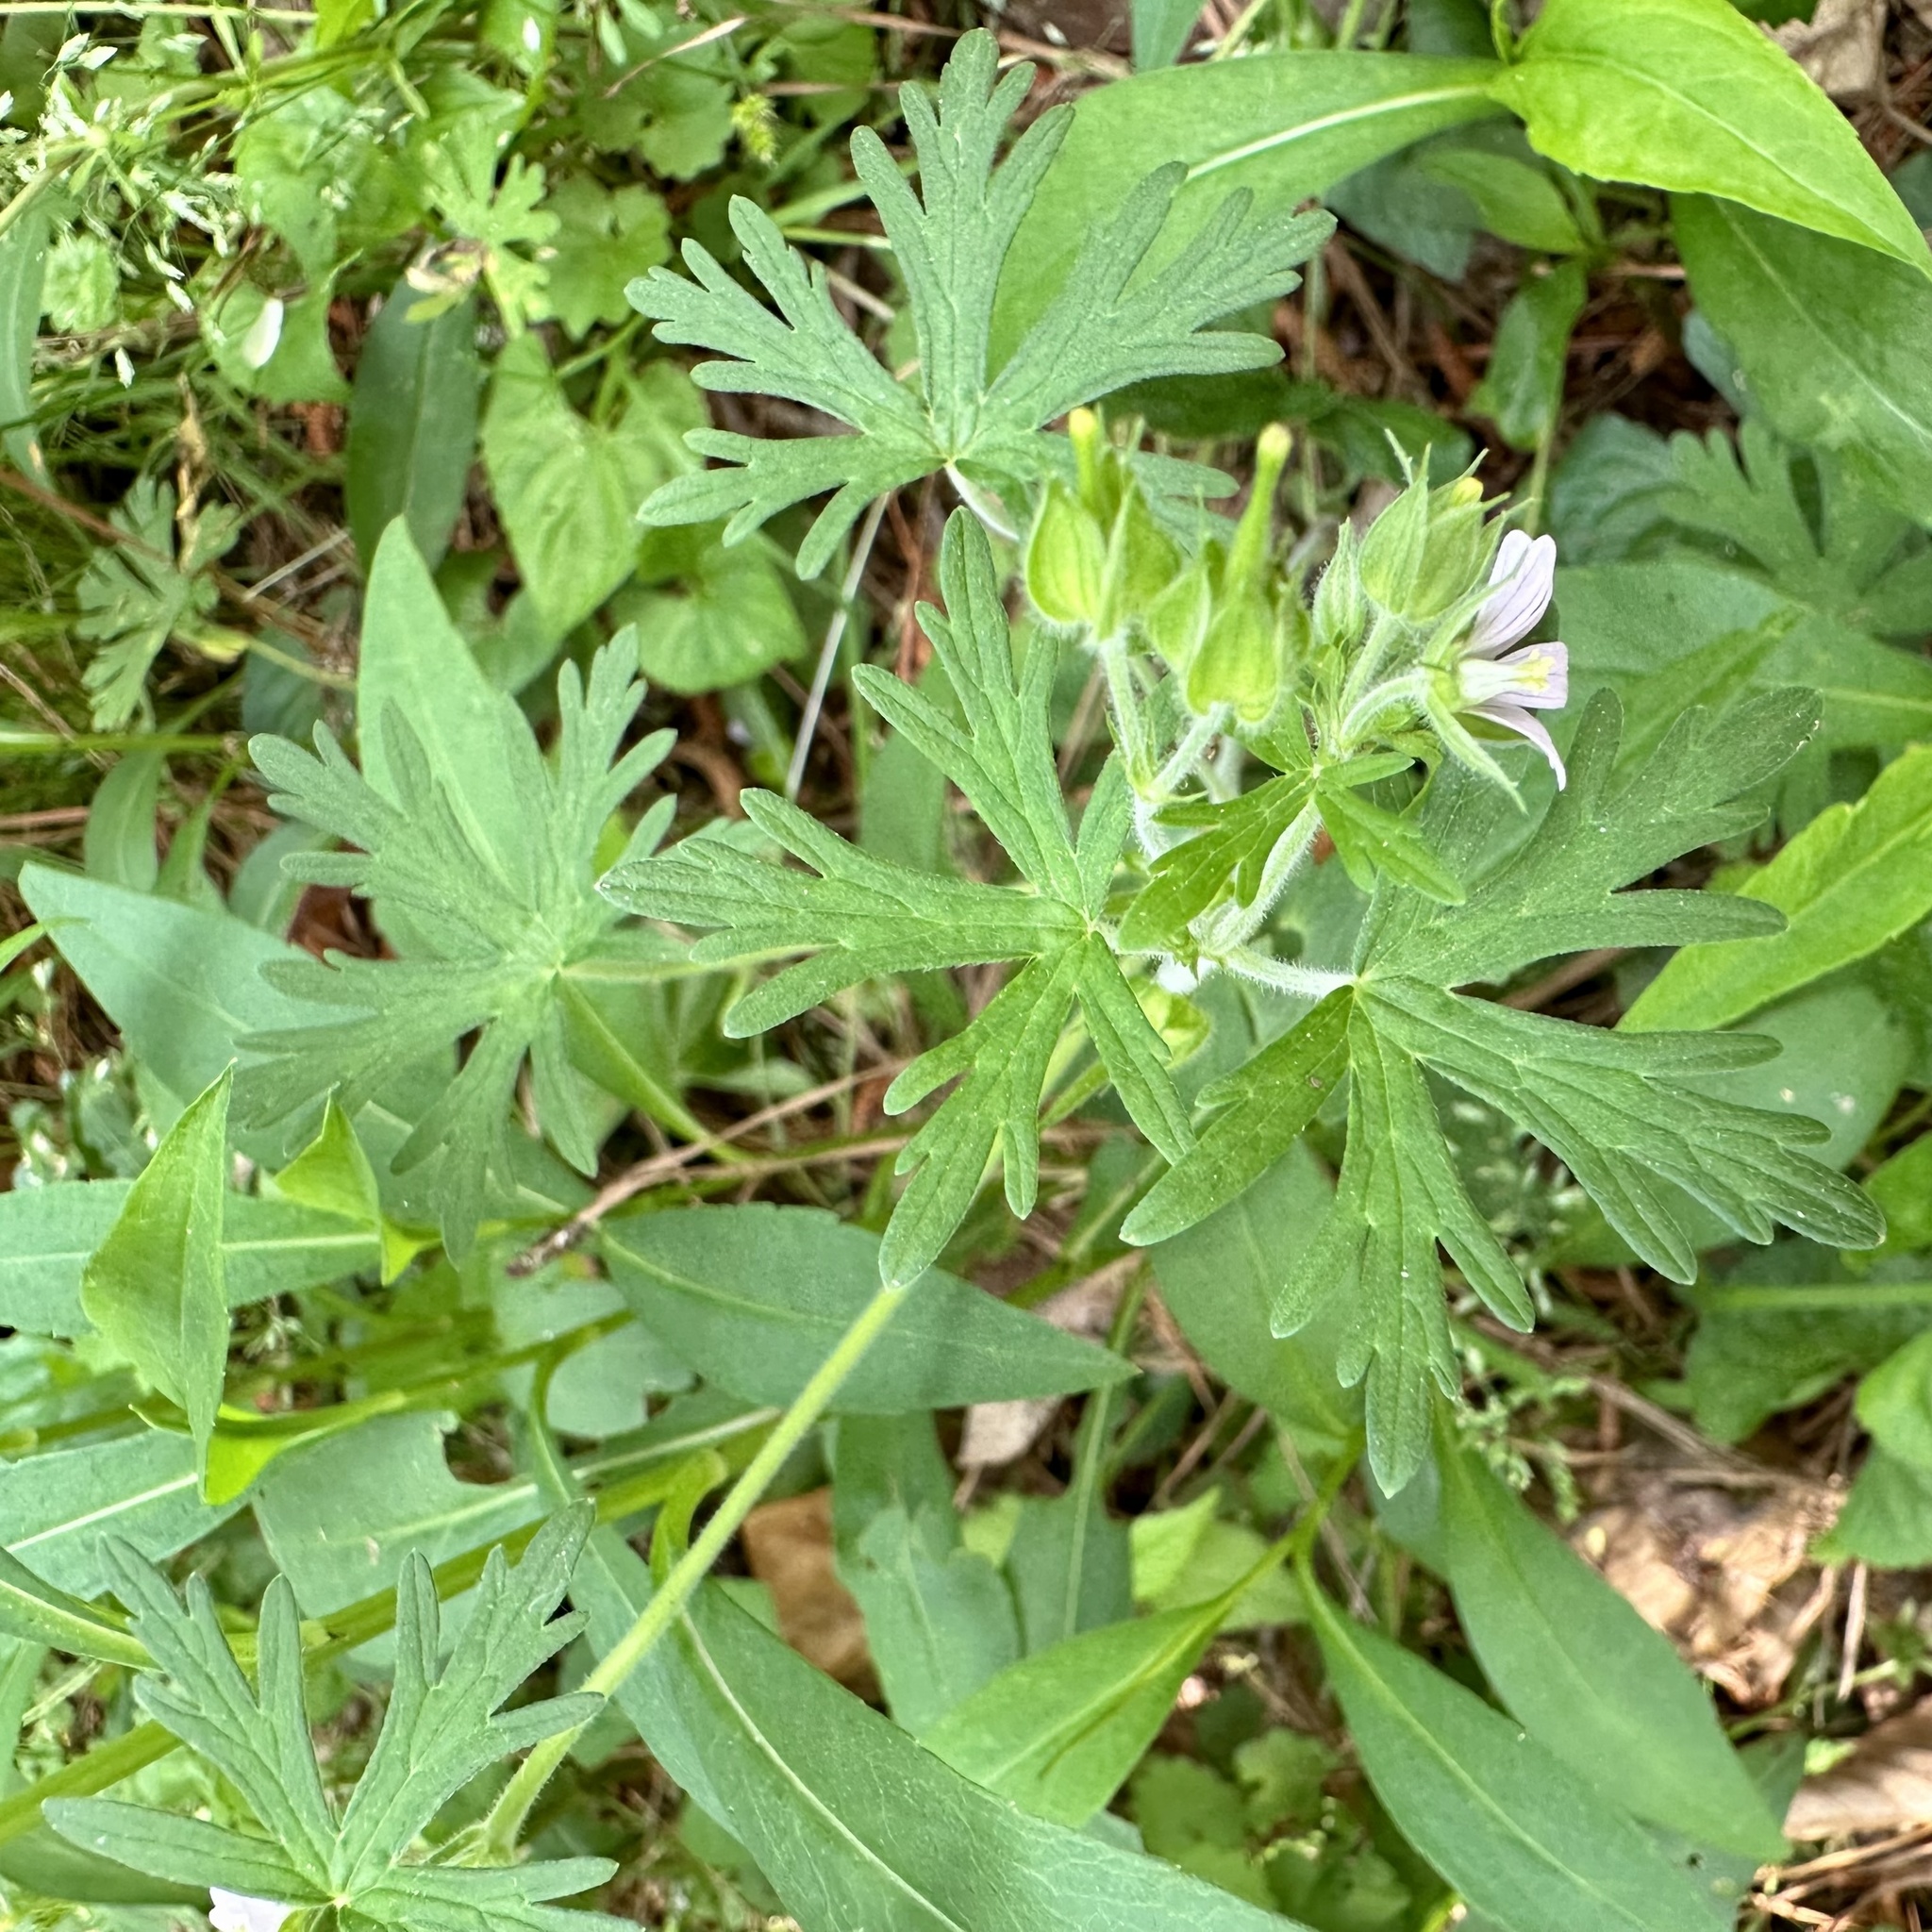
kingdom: Plantae
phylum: Tracheophyta
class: Magnoliopsida
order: Geraniales
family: Geraniaceae
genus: Geranium
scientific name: Geranium carolinianum
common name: Carolina crane's-bill
